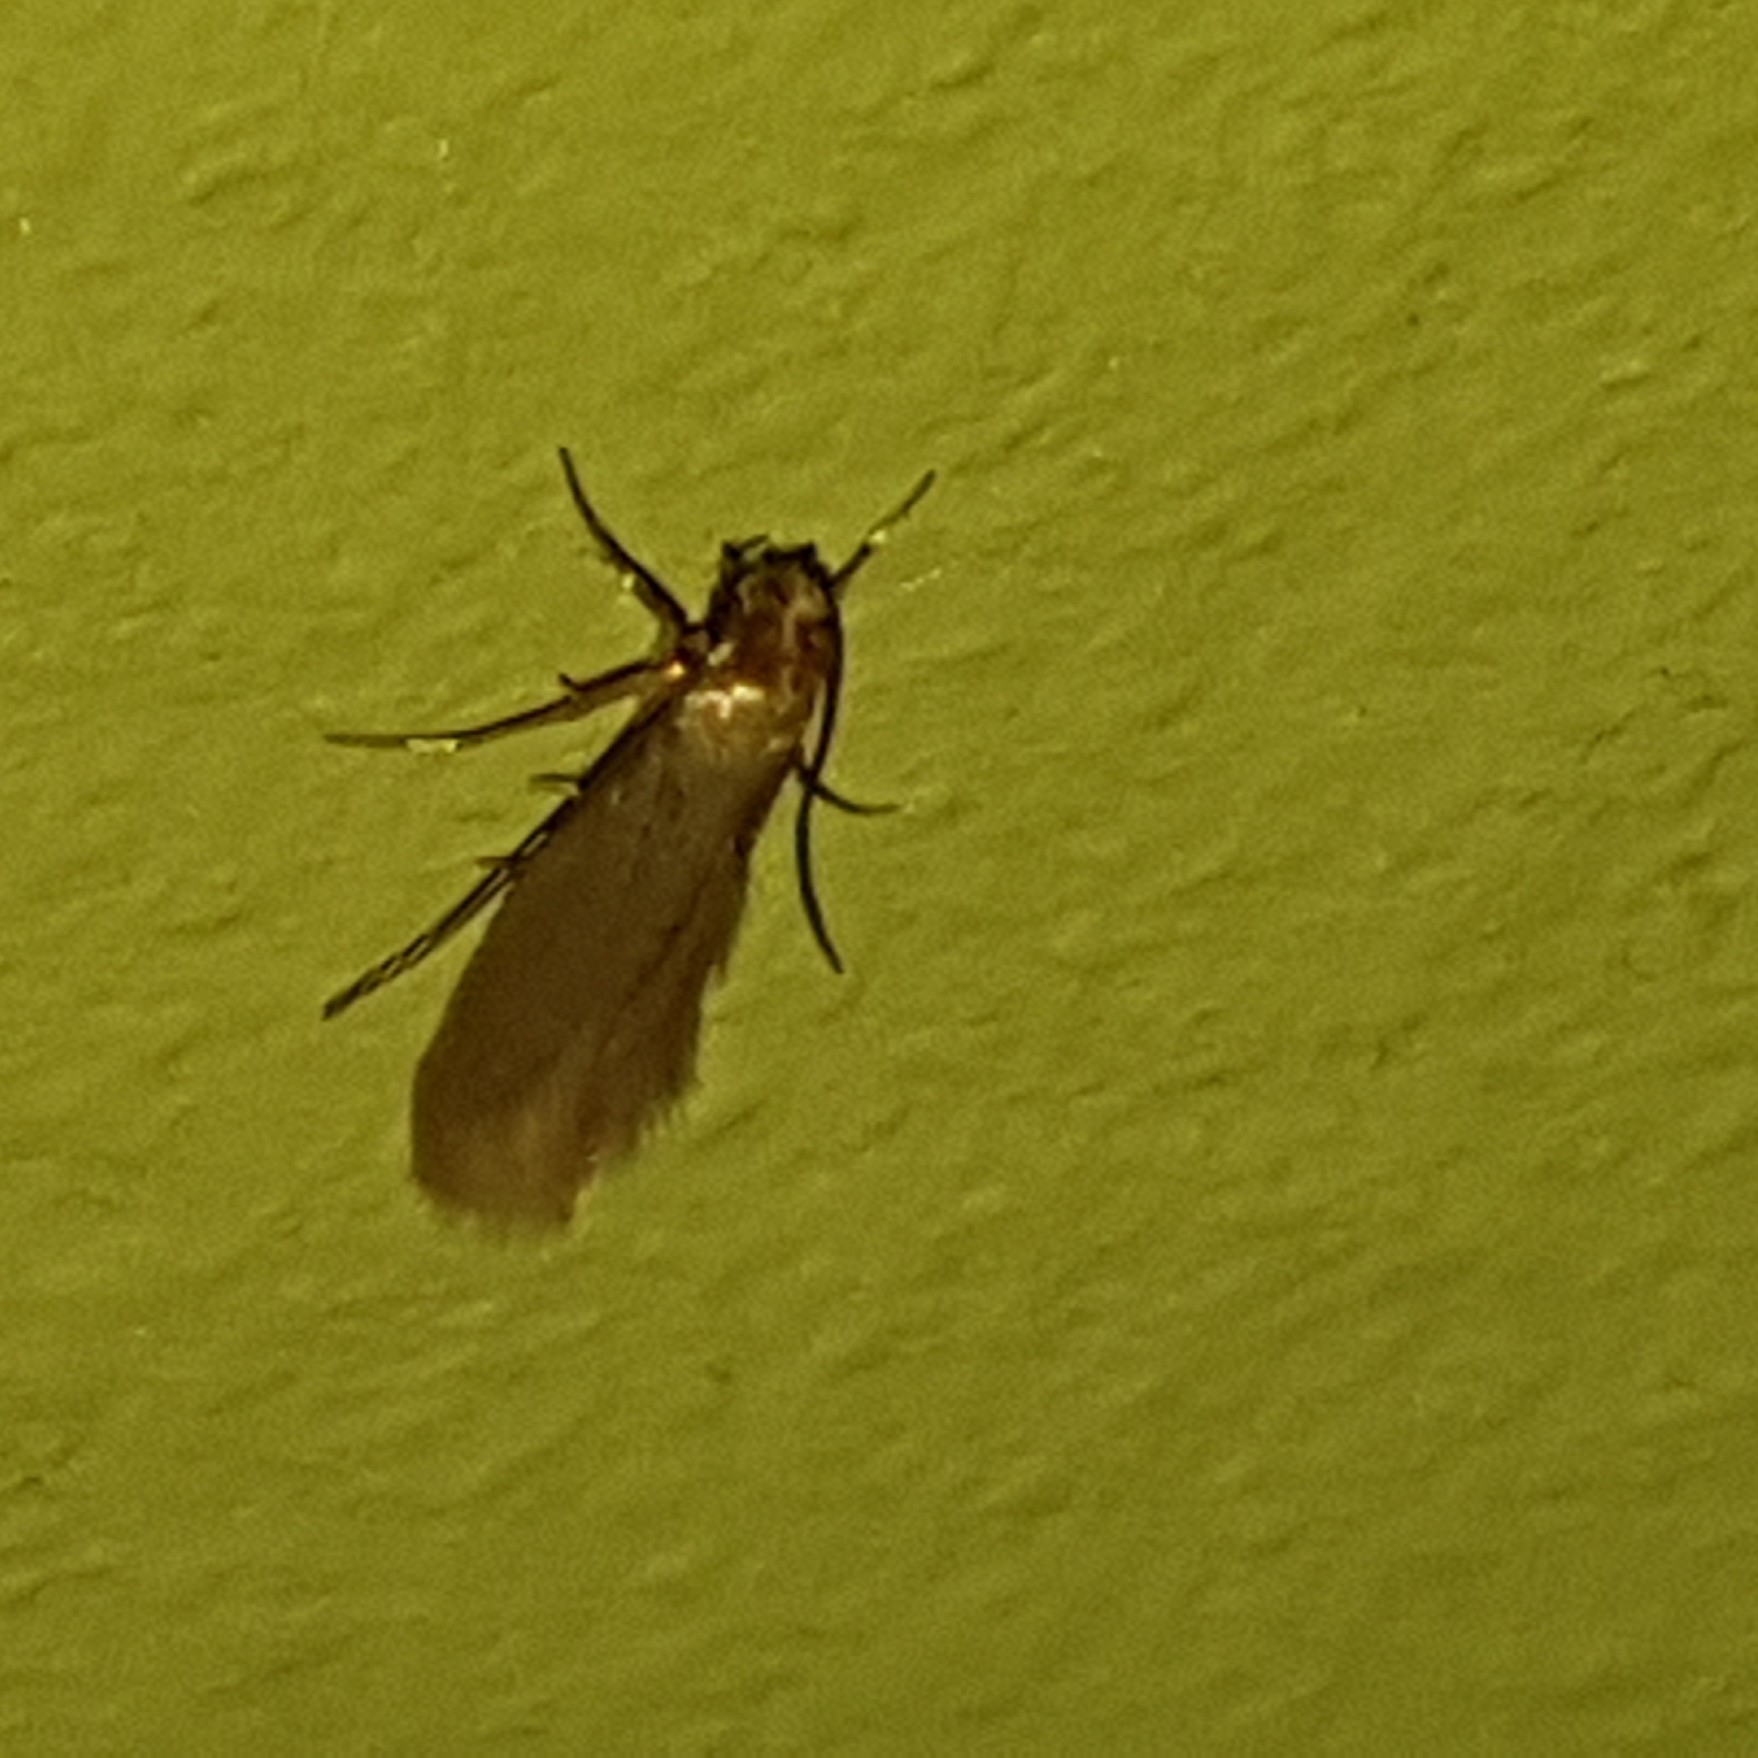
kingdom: Animalia
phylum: Arthropoda
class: Insecta
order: Lepidoptera
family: Tineidae
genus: Tineola
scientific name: Tineola bisselliella
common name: Webbing clothes moth
